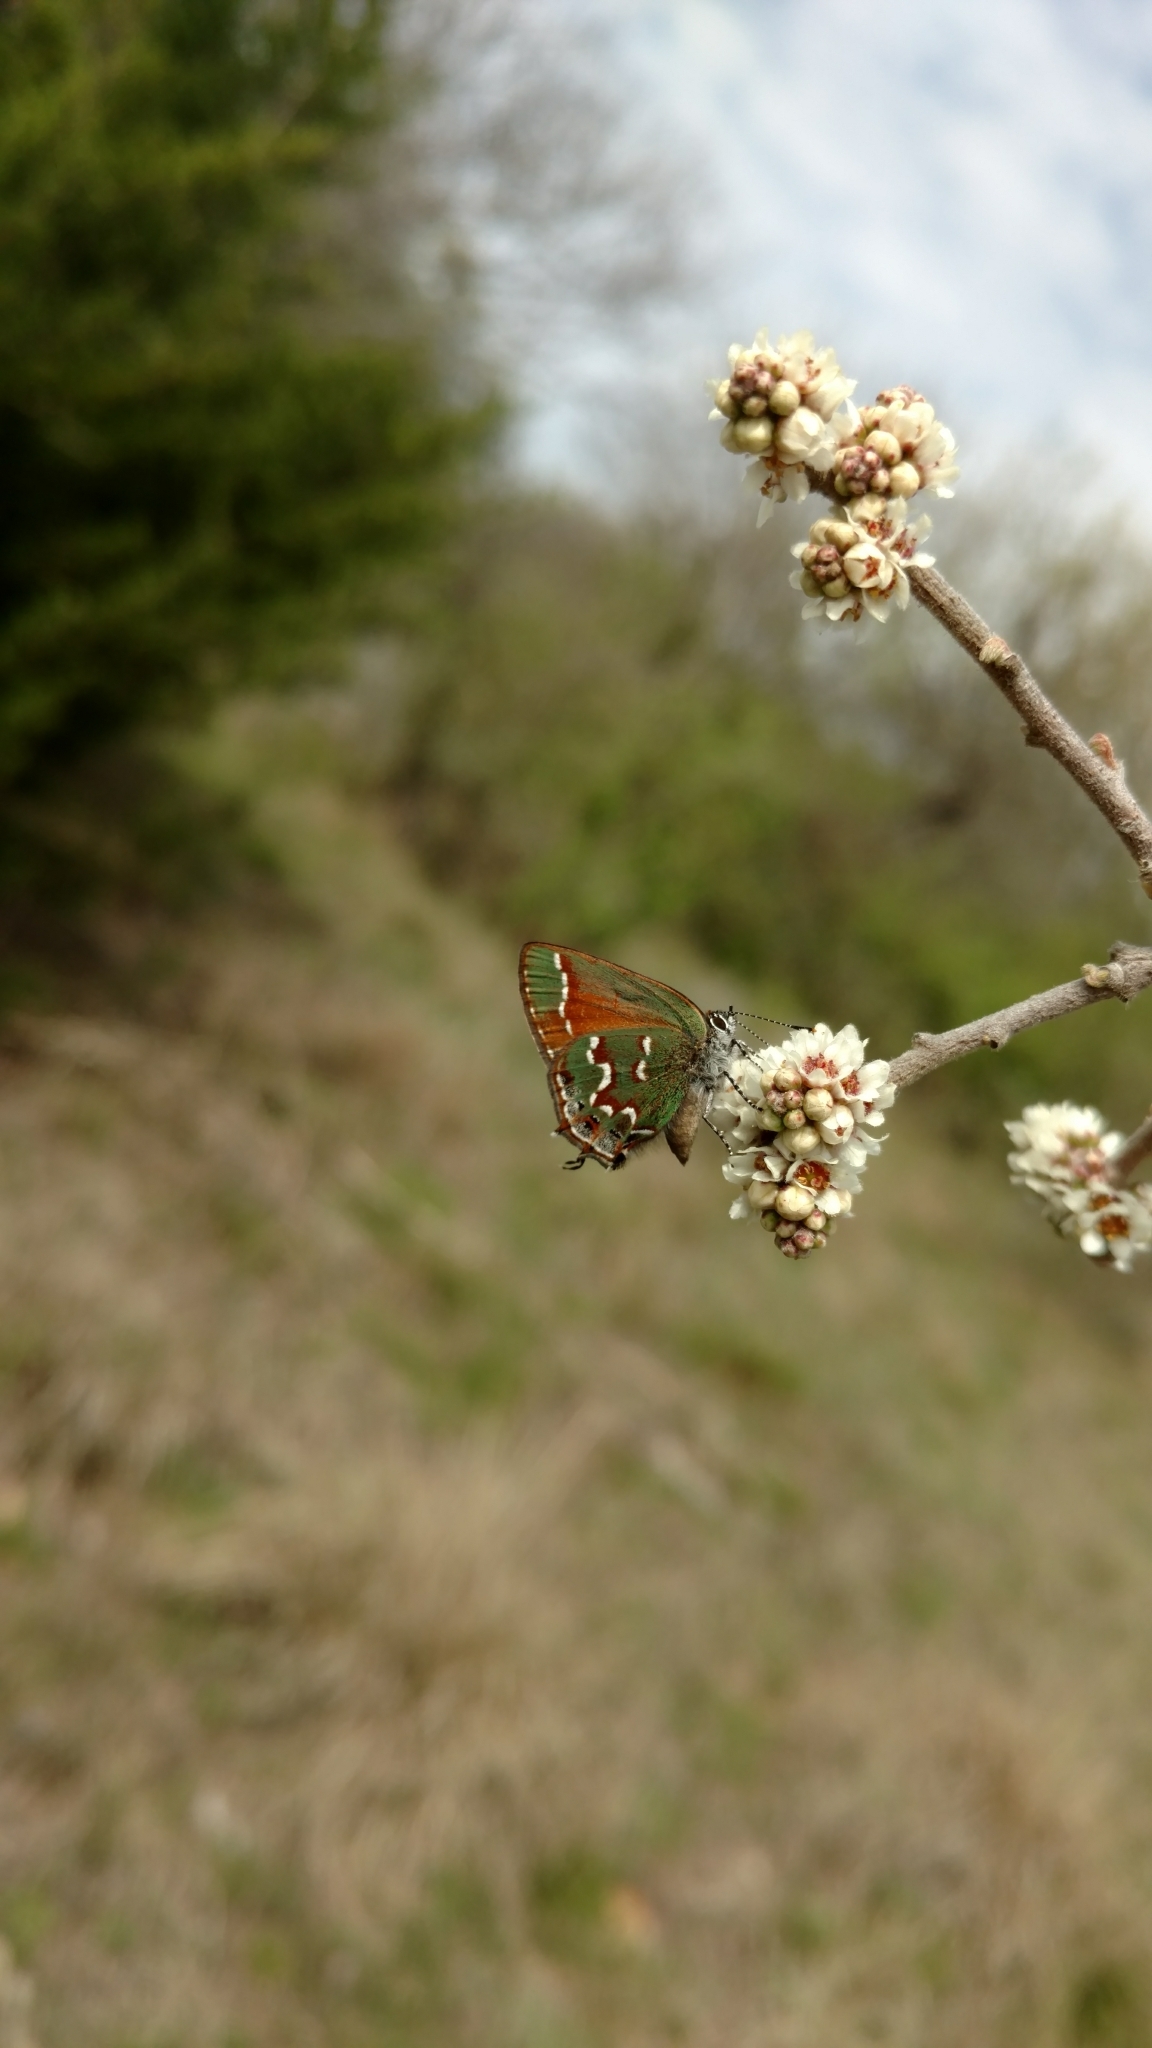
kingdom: Animalia
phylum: Arthropoda
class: Insecta
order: Lepidoptera
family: Lycaenidae
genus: Mitoura
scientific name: Mitoura gryneus
